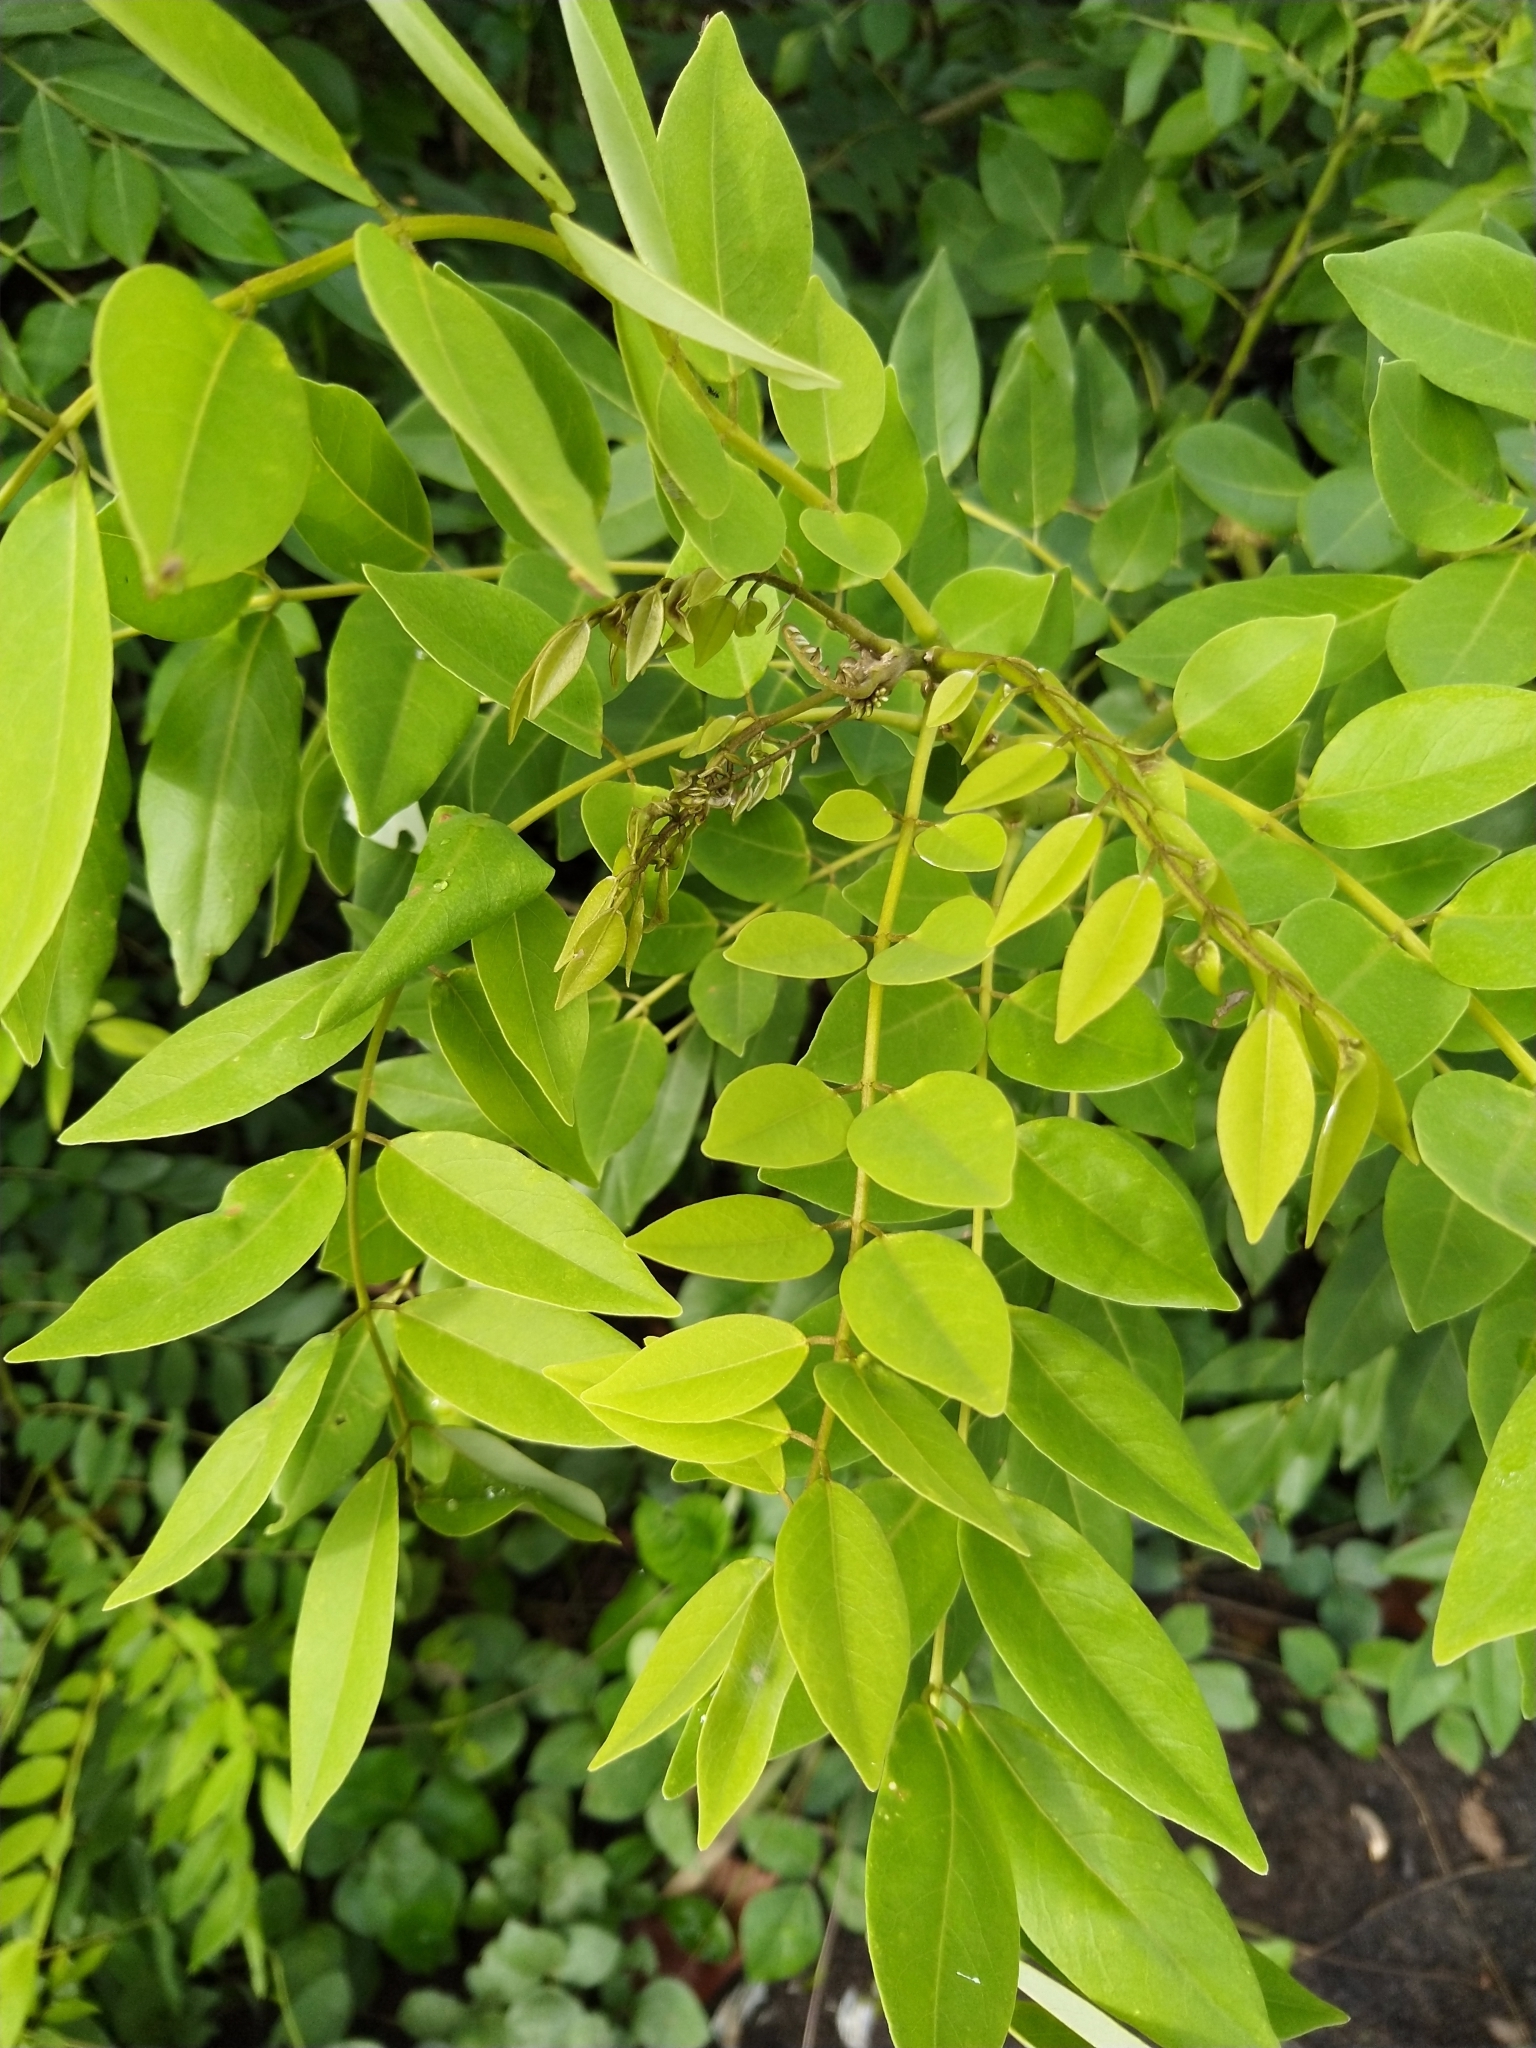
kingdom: Plantae
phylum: Tracheophyta
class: Magnoliopsida
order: Fabales
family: Fabaceae
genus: Gliricidia
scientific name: Gliricidia sepium
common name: Quickstick
